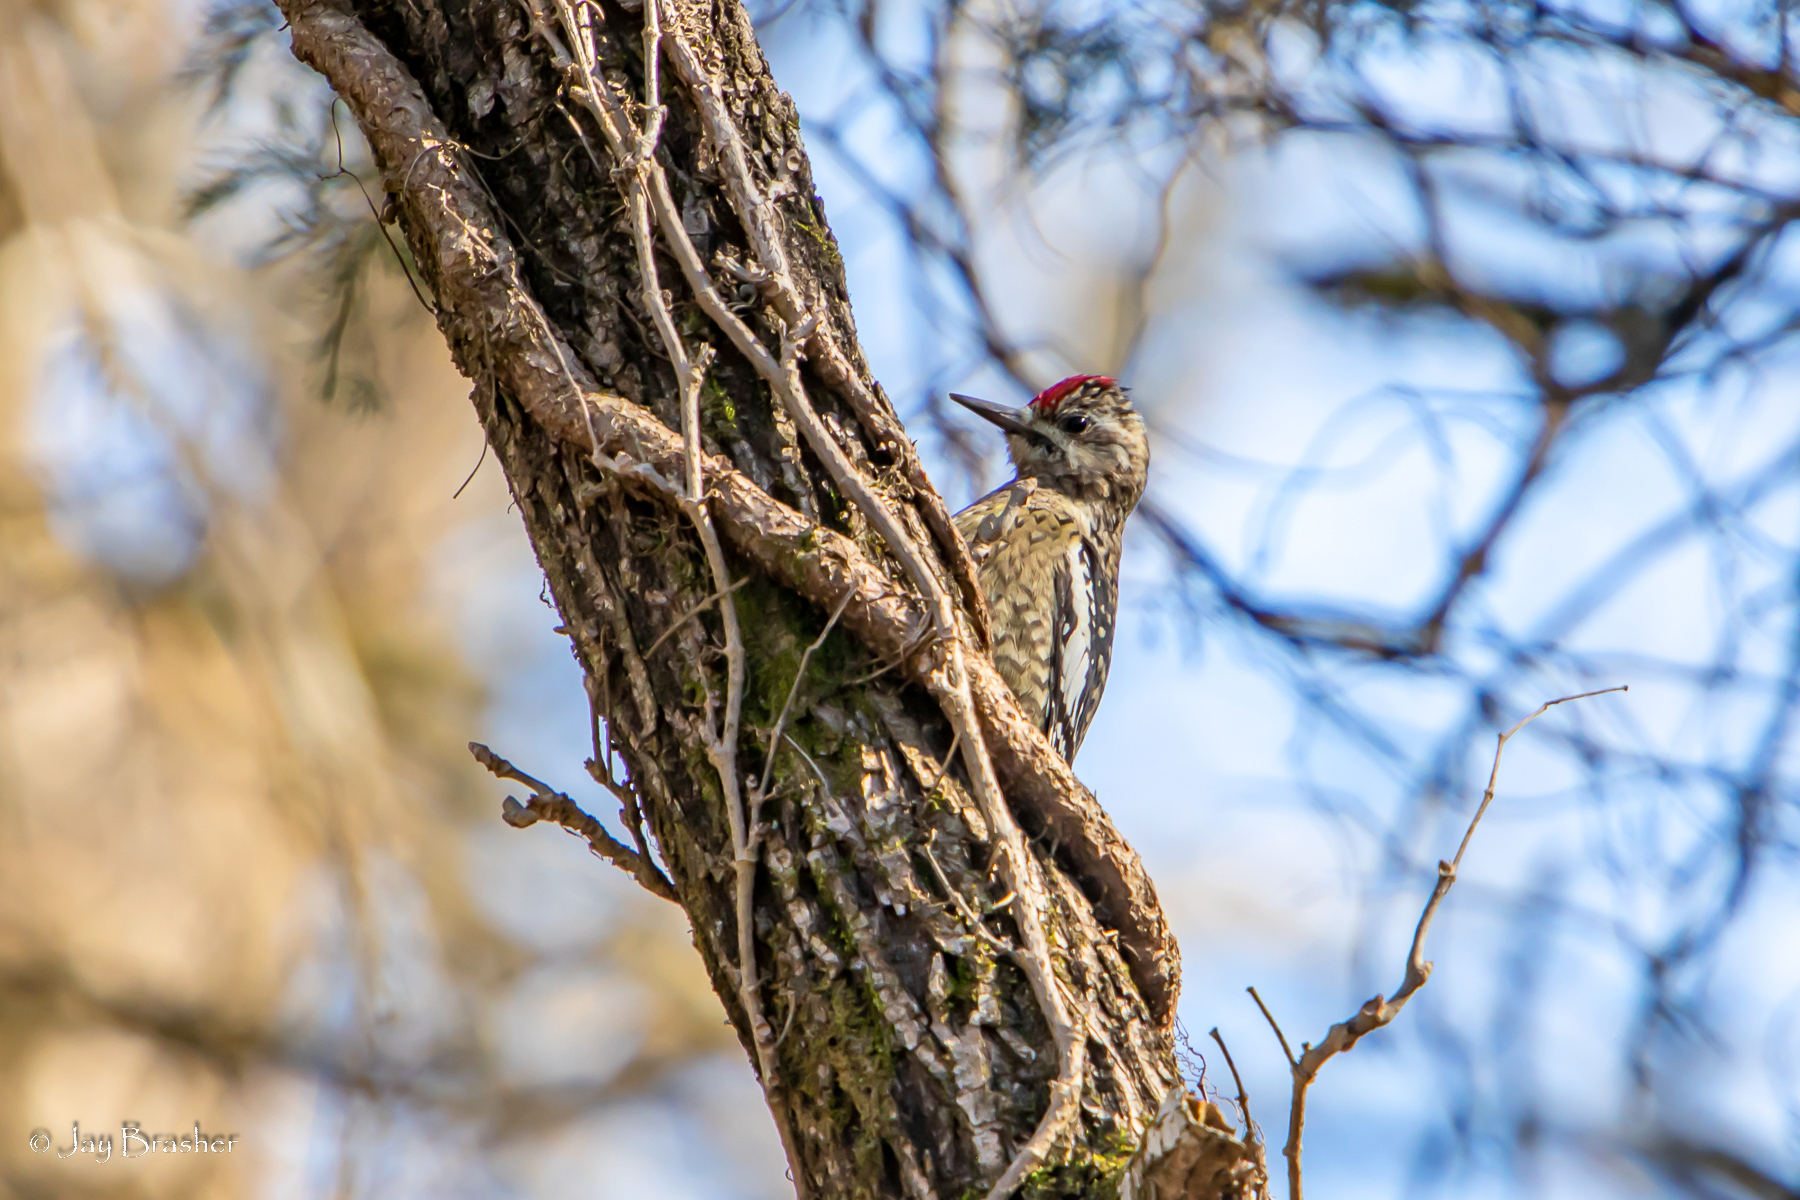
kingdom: Animalia
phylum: Chordata
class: Aves
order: Piciformes
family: Picidae
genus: Sphyrapicus
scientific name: Sphyrapicus varius
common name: Yellow-bellied sapsucker
